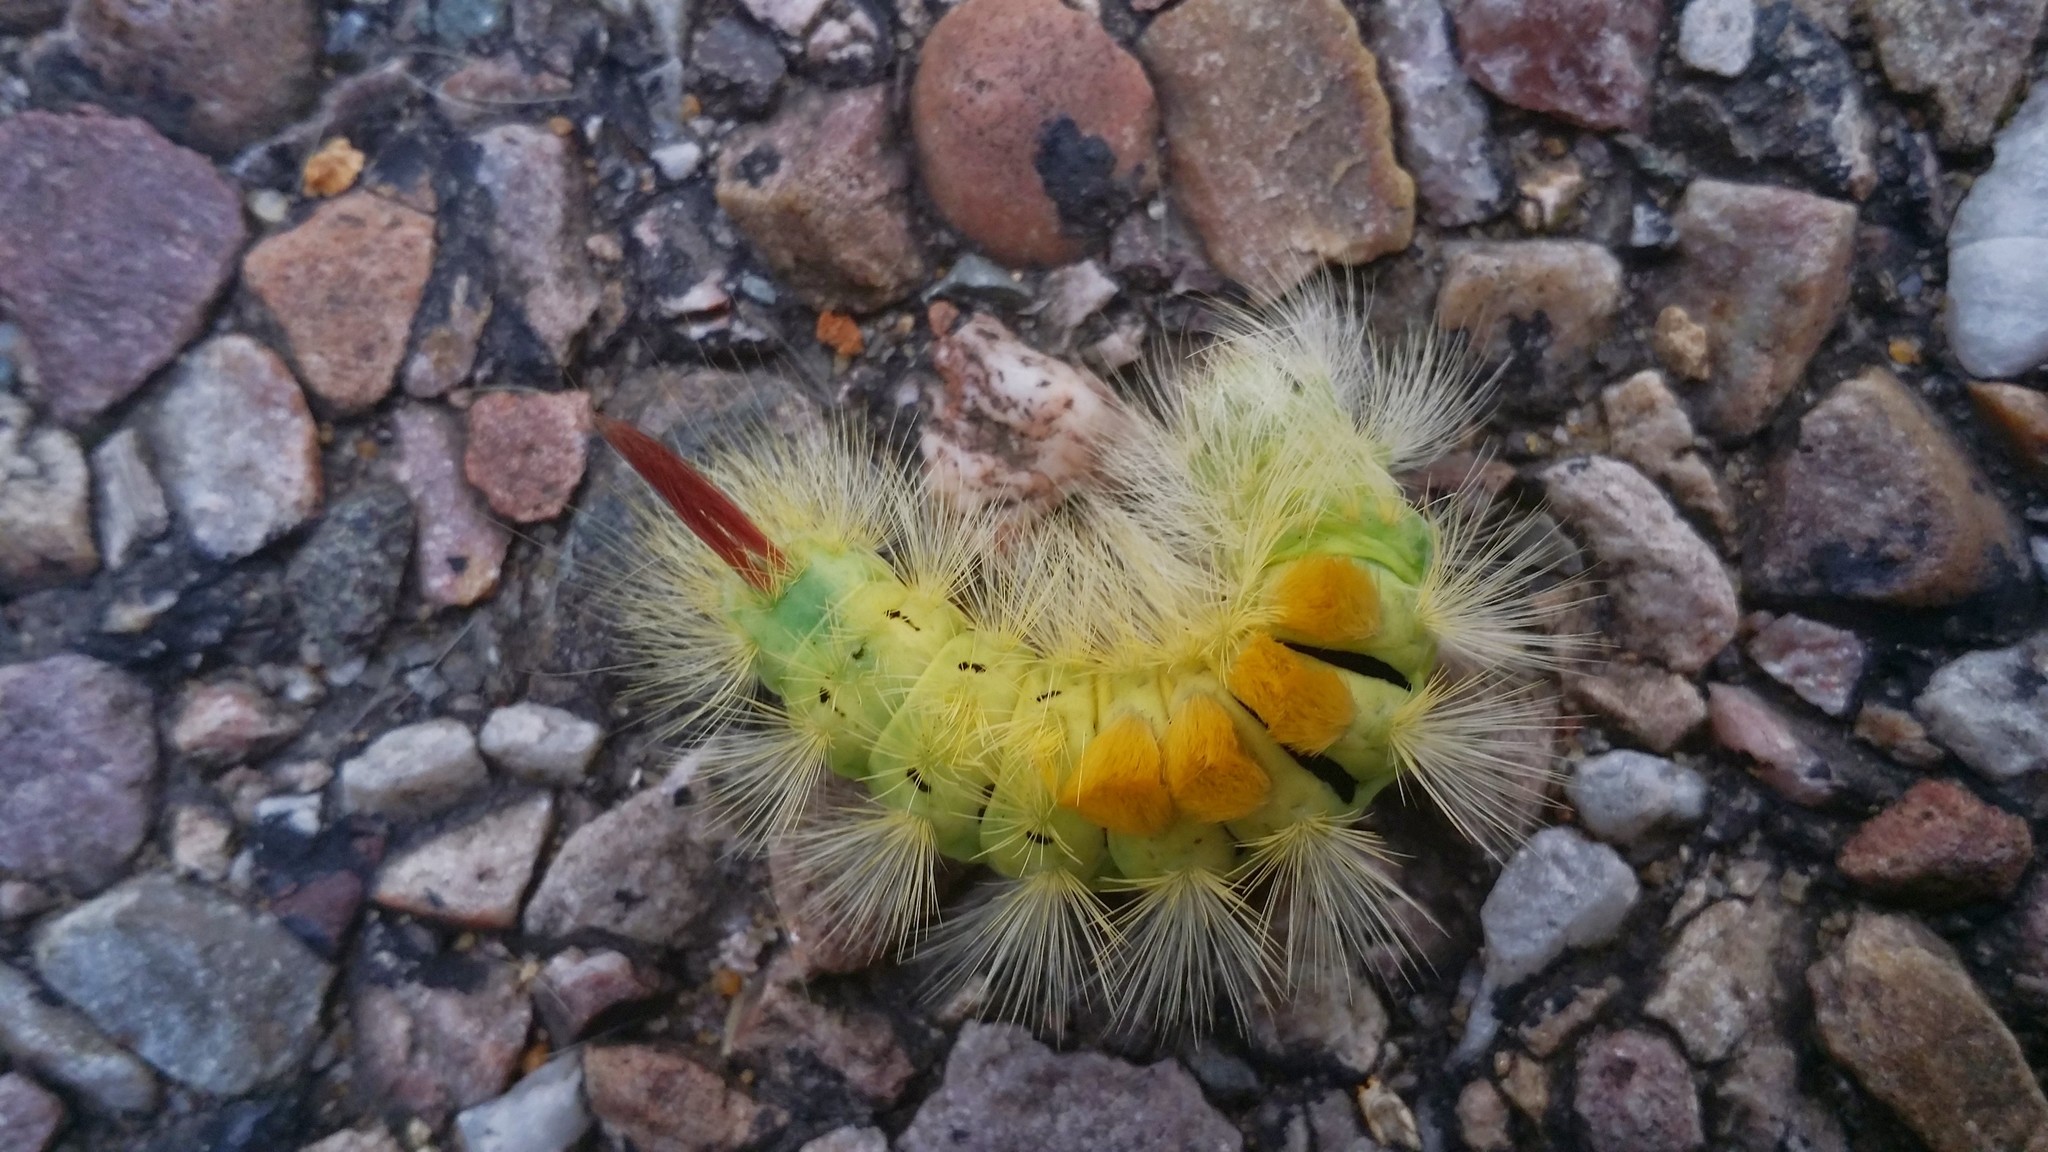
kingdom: Animalia
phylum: Arthropoda
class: Insecta
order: Lepidoptera
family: Erebidae
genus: Calliteara
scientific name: Calliteara pudibunda
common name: Pale tussock
